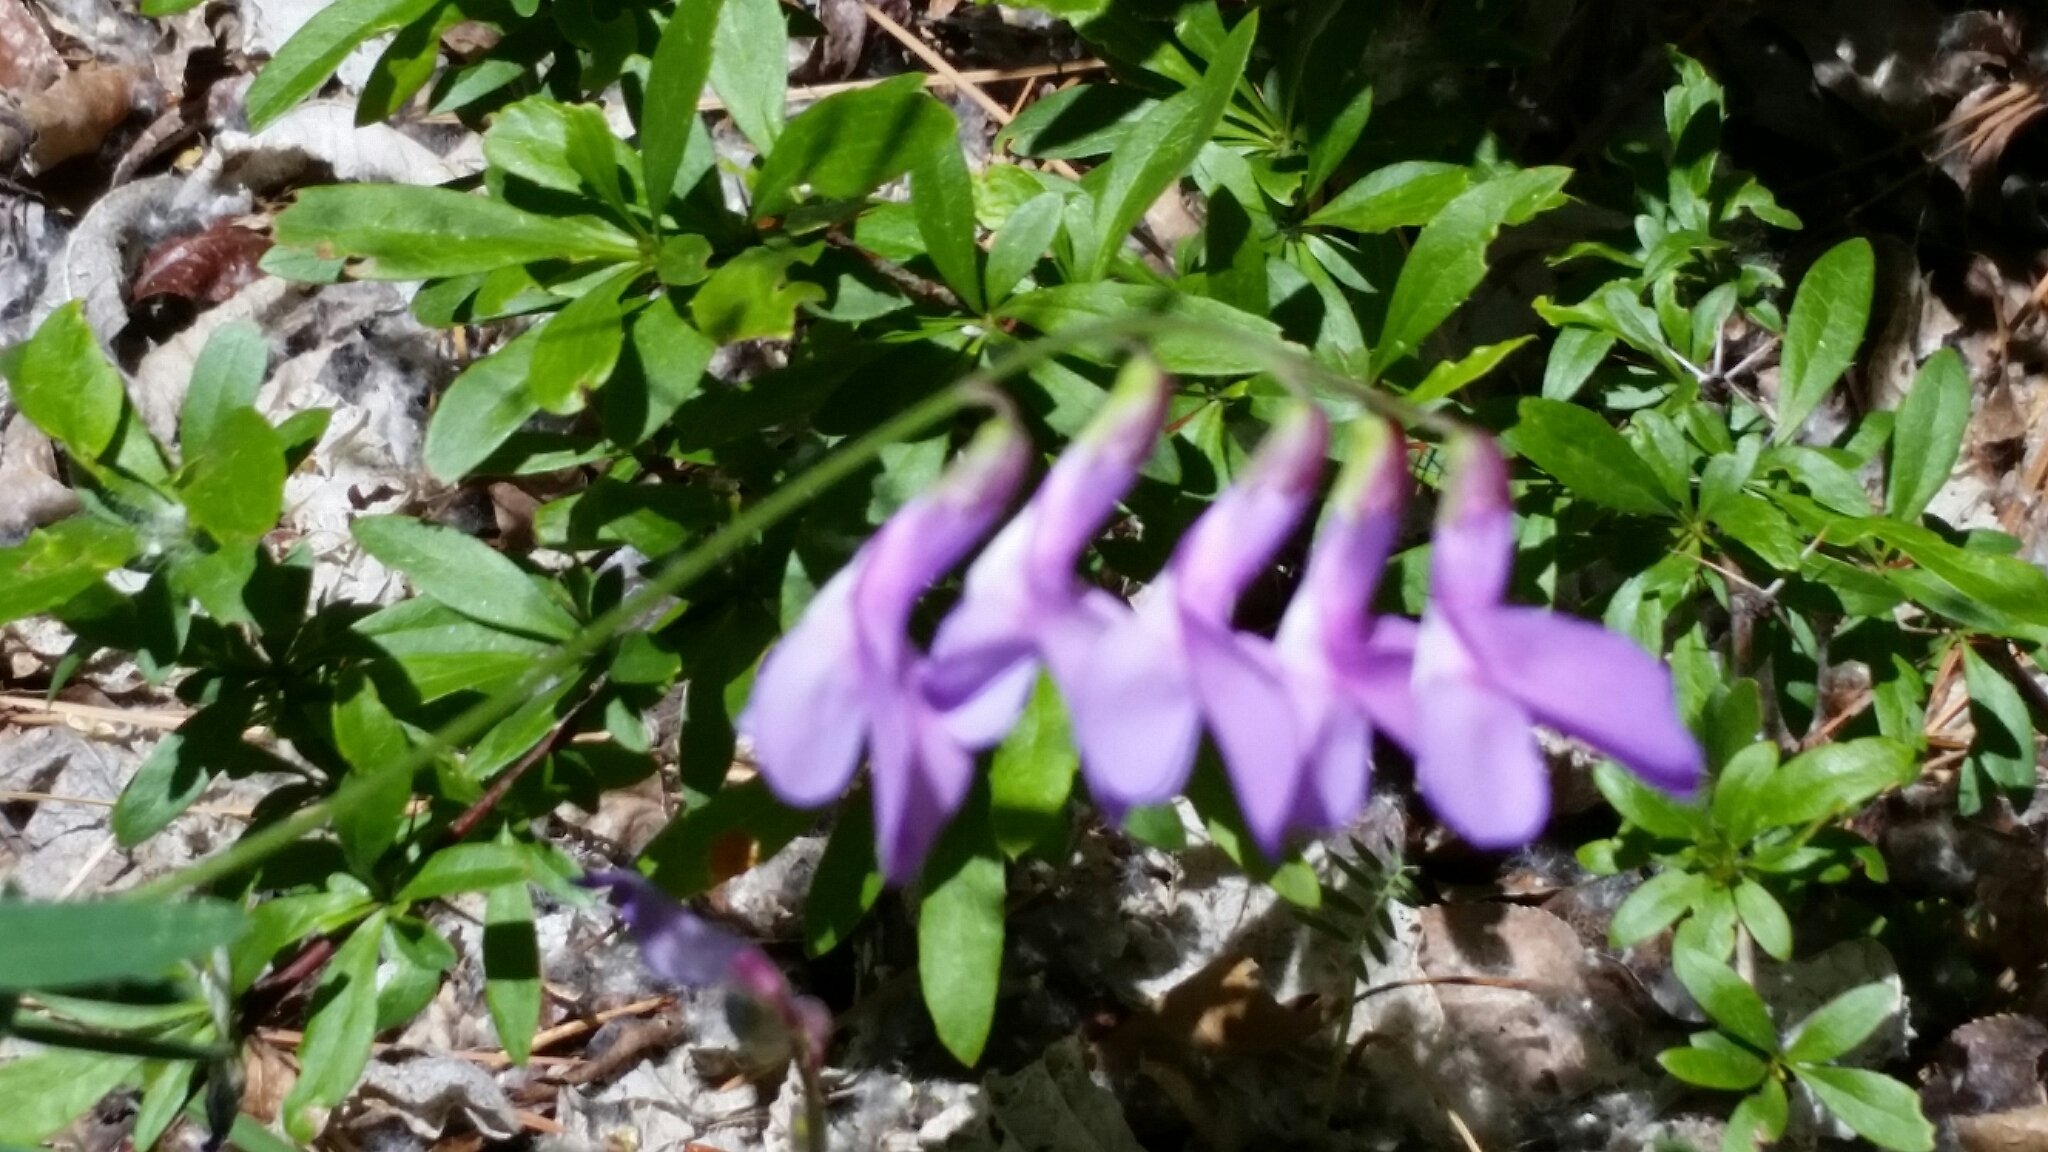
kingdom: Plantae
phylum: Tracheophyta
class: Magnoliopsida
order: Fabales
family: Fabaceae
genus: Vicia
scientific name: Vicia americana
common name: American vetch
